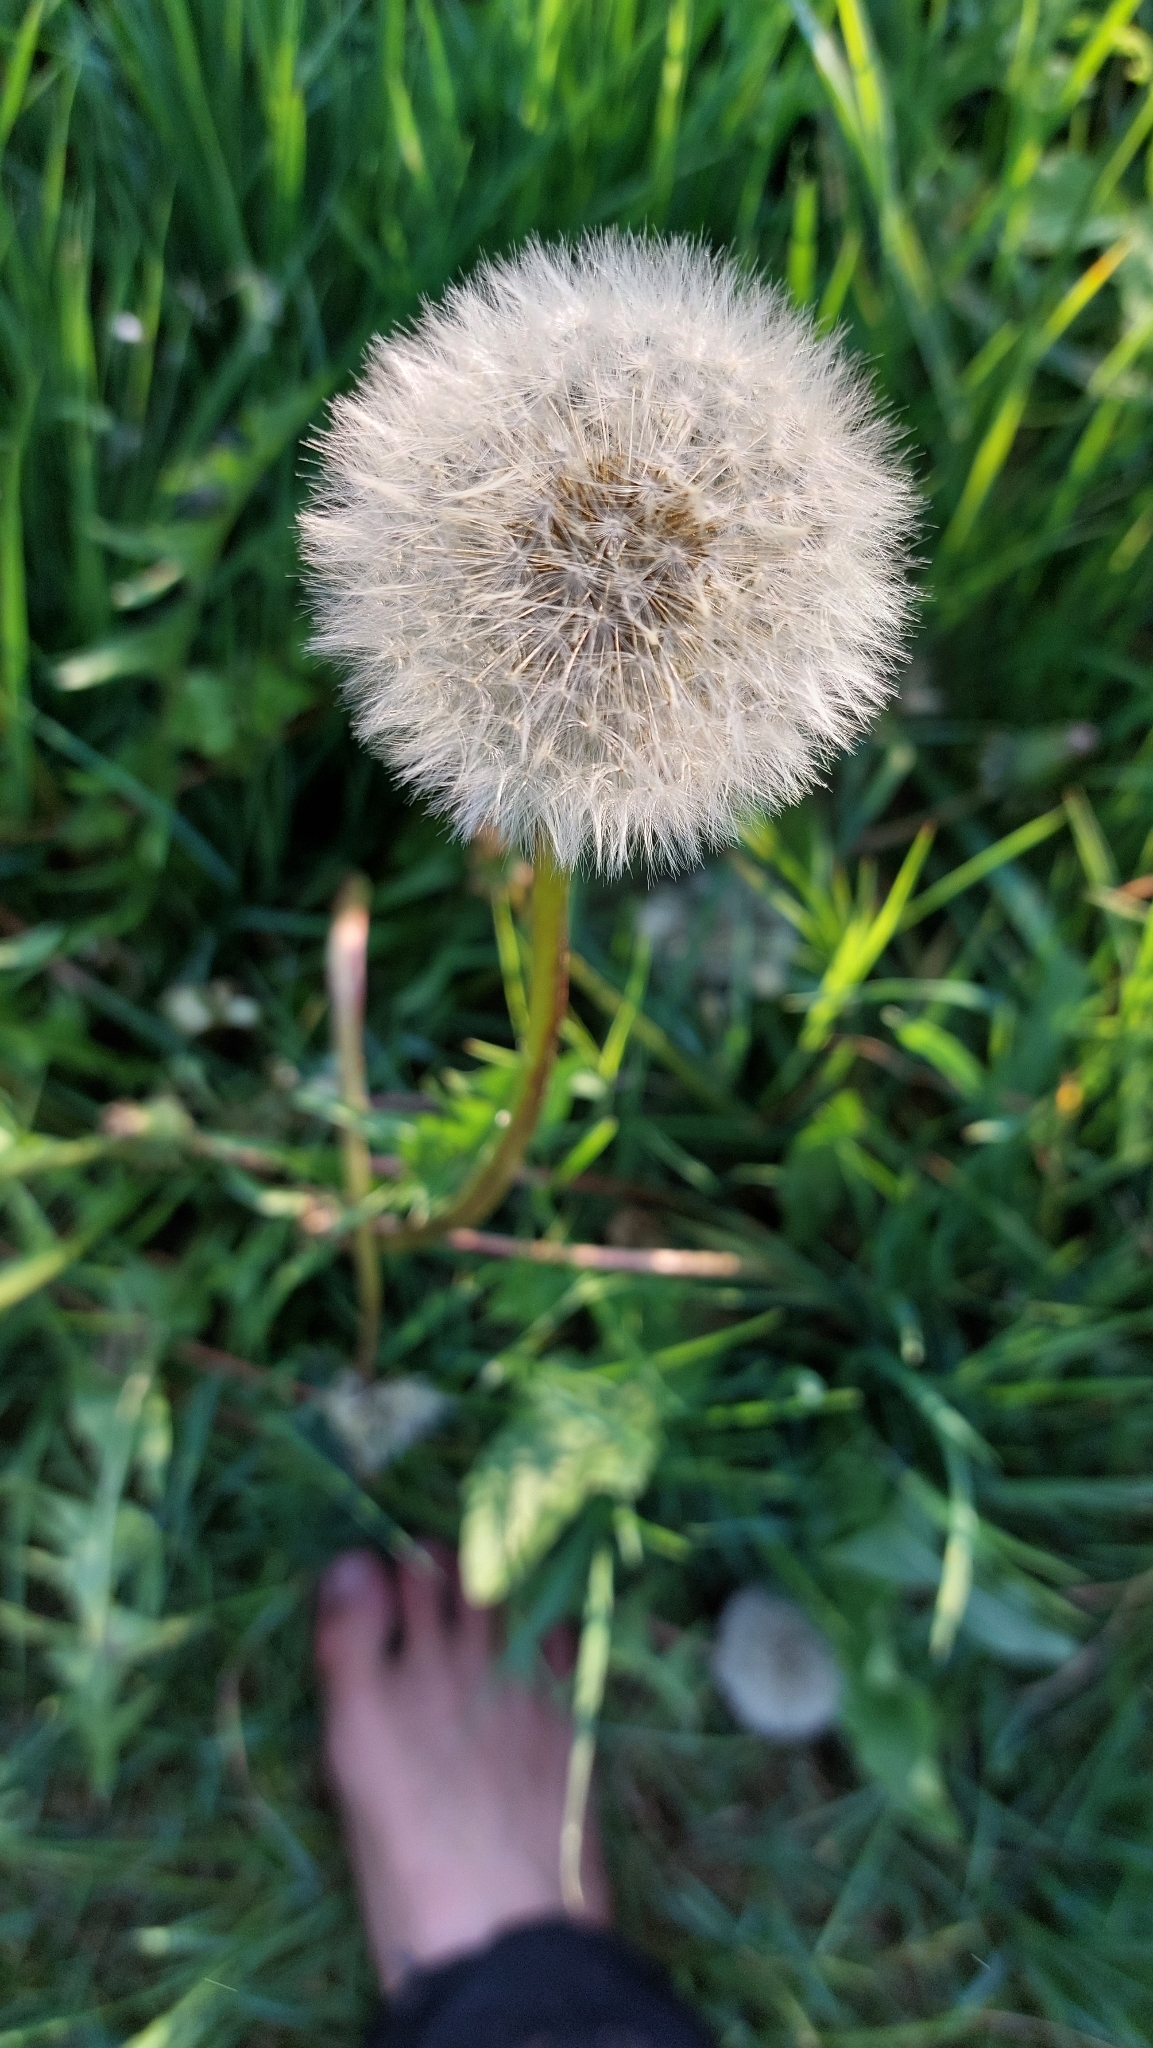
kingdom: Plantae
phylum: Tracheophyta
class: Magnoliopsida
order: Asterales
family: Asteraceae
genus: Taraxacum
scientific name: Taraxacum
